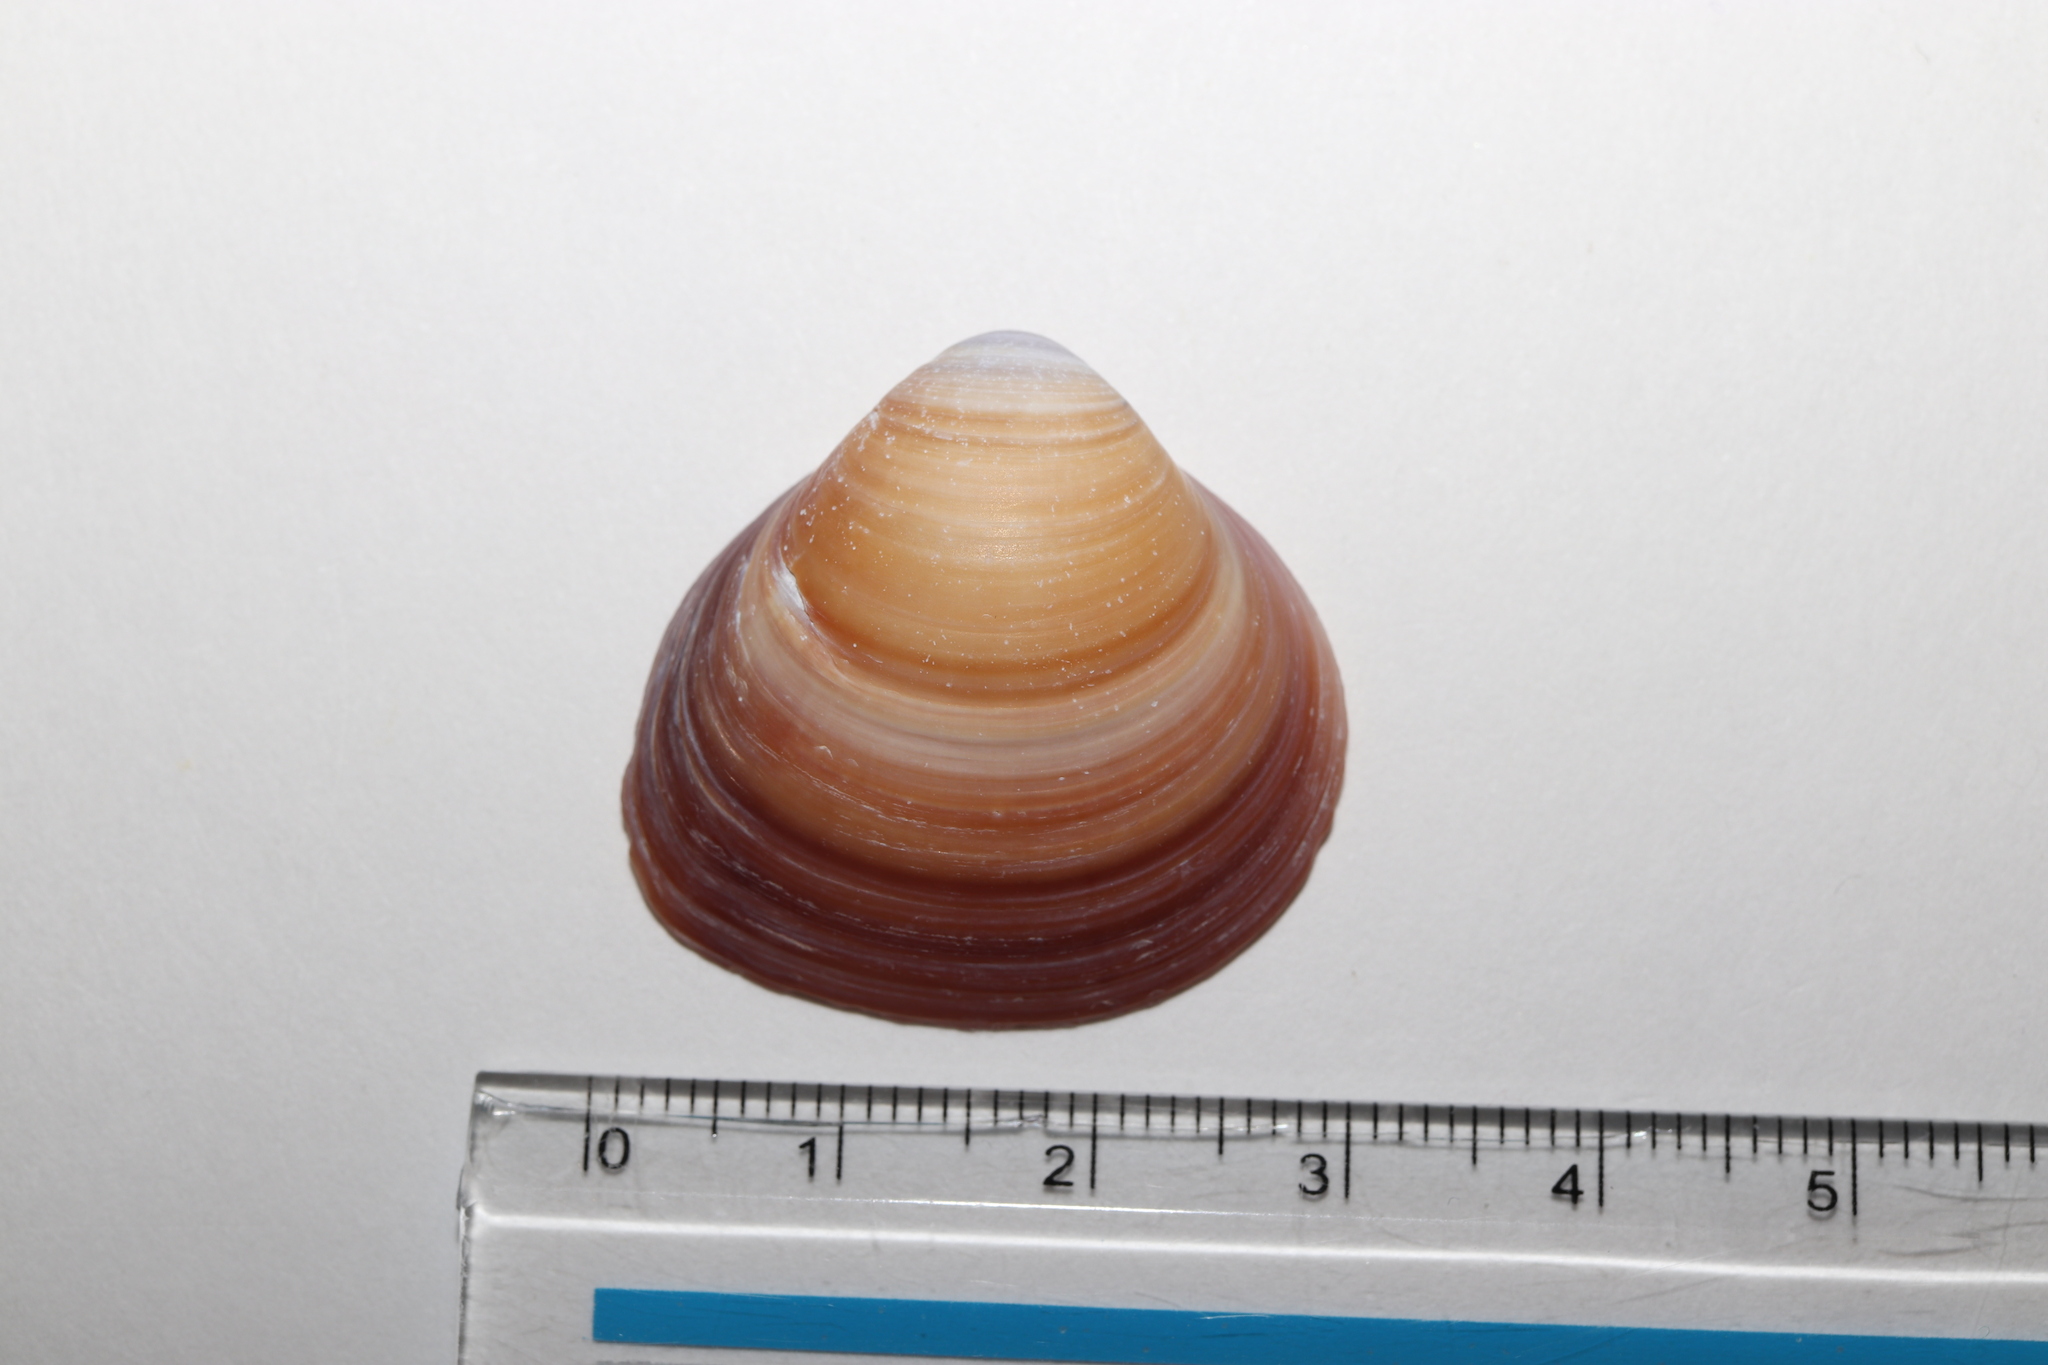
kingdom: Animalia
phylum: Mollusca
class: Bivalvia
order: Venerida
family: Cyrenidae
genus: Corbicula
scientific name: Corbicula japonica
